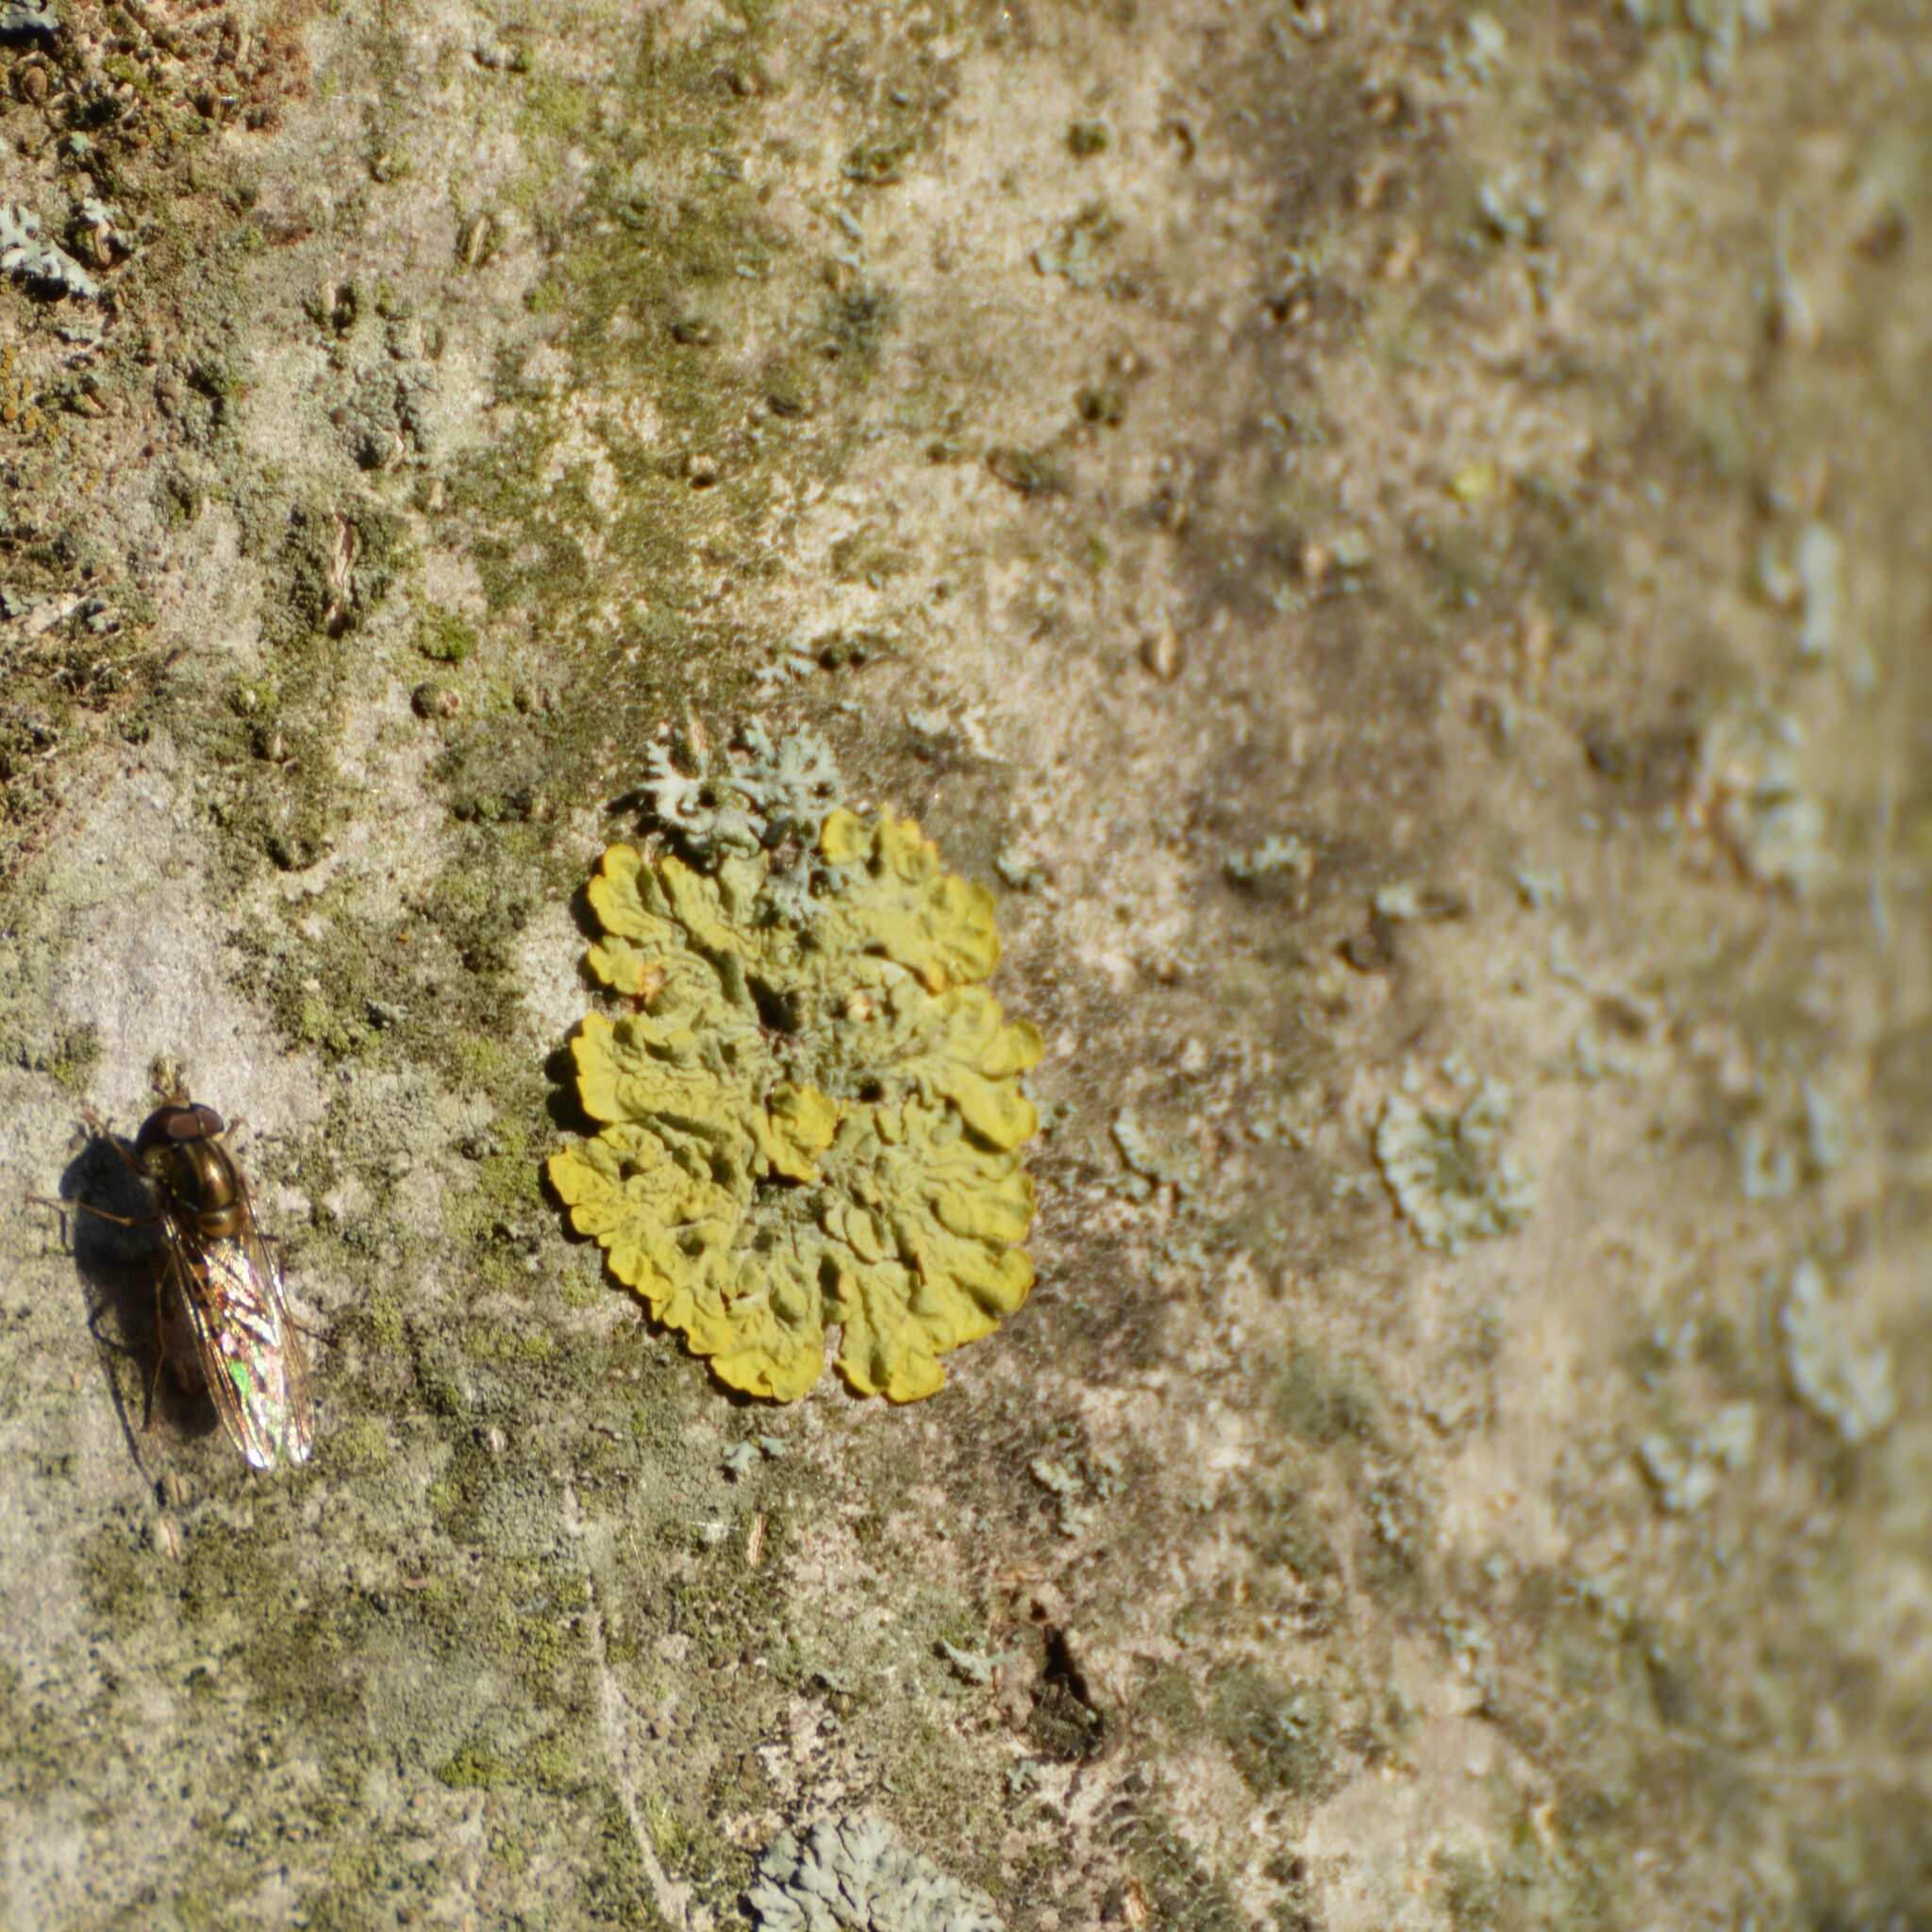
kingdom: Fungi
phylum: Ascomycota
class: Lecanoromycetes
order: Teloschistales
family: Teloschistaceae
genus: Xanthoria
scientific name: Xanthoria parietina
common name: Common orange lichen
